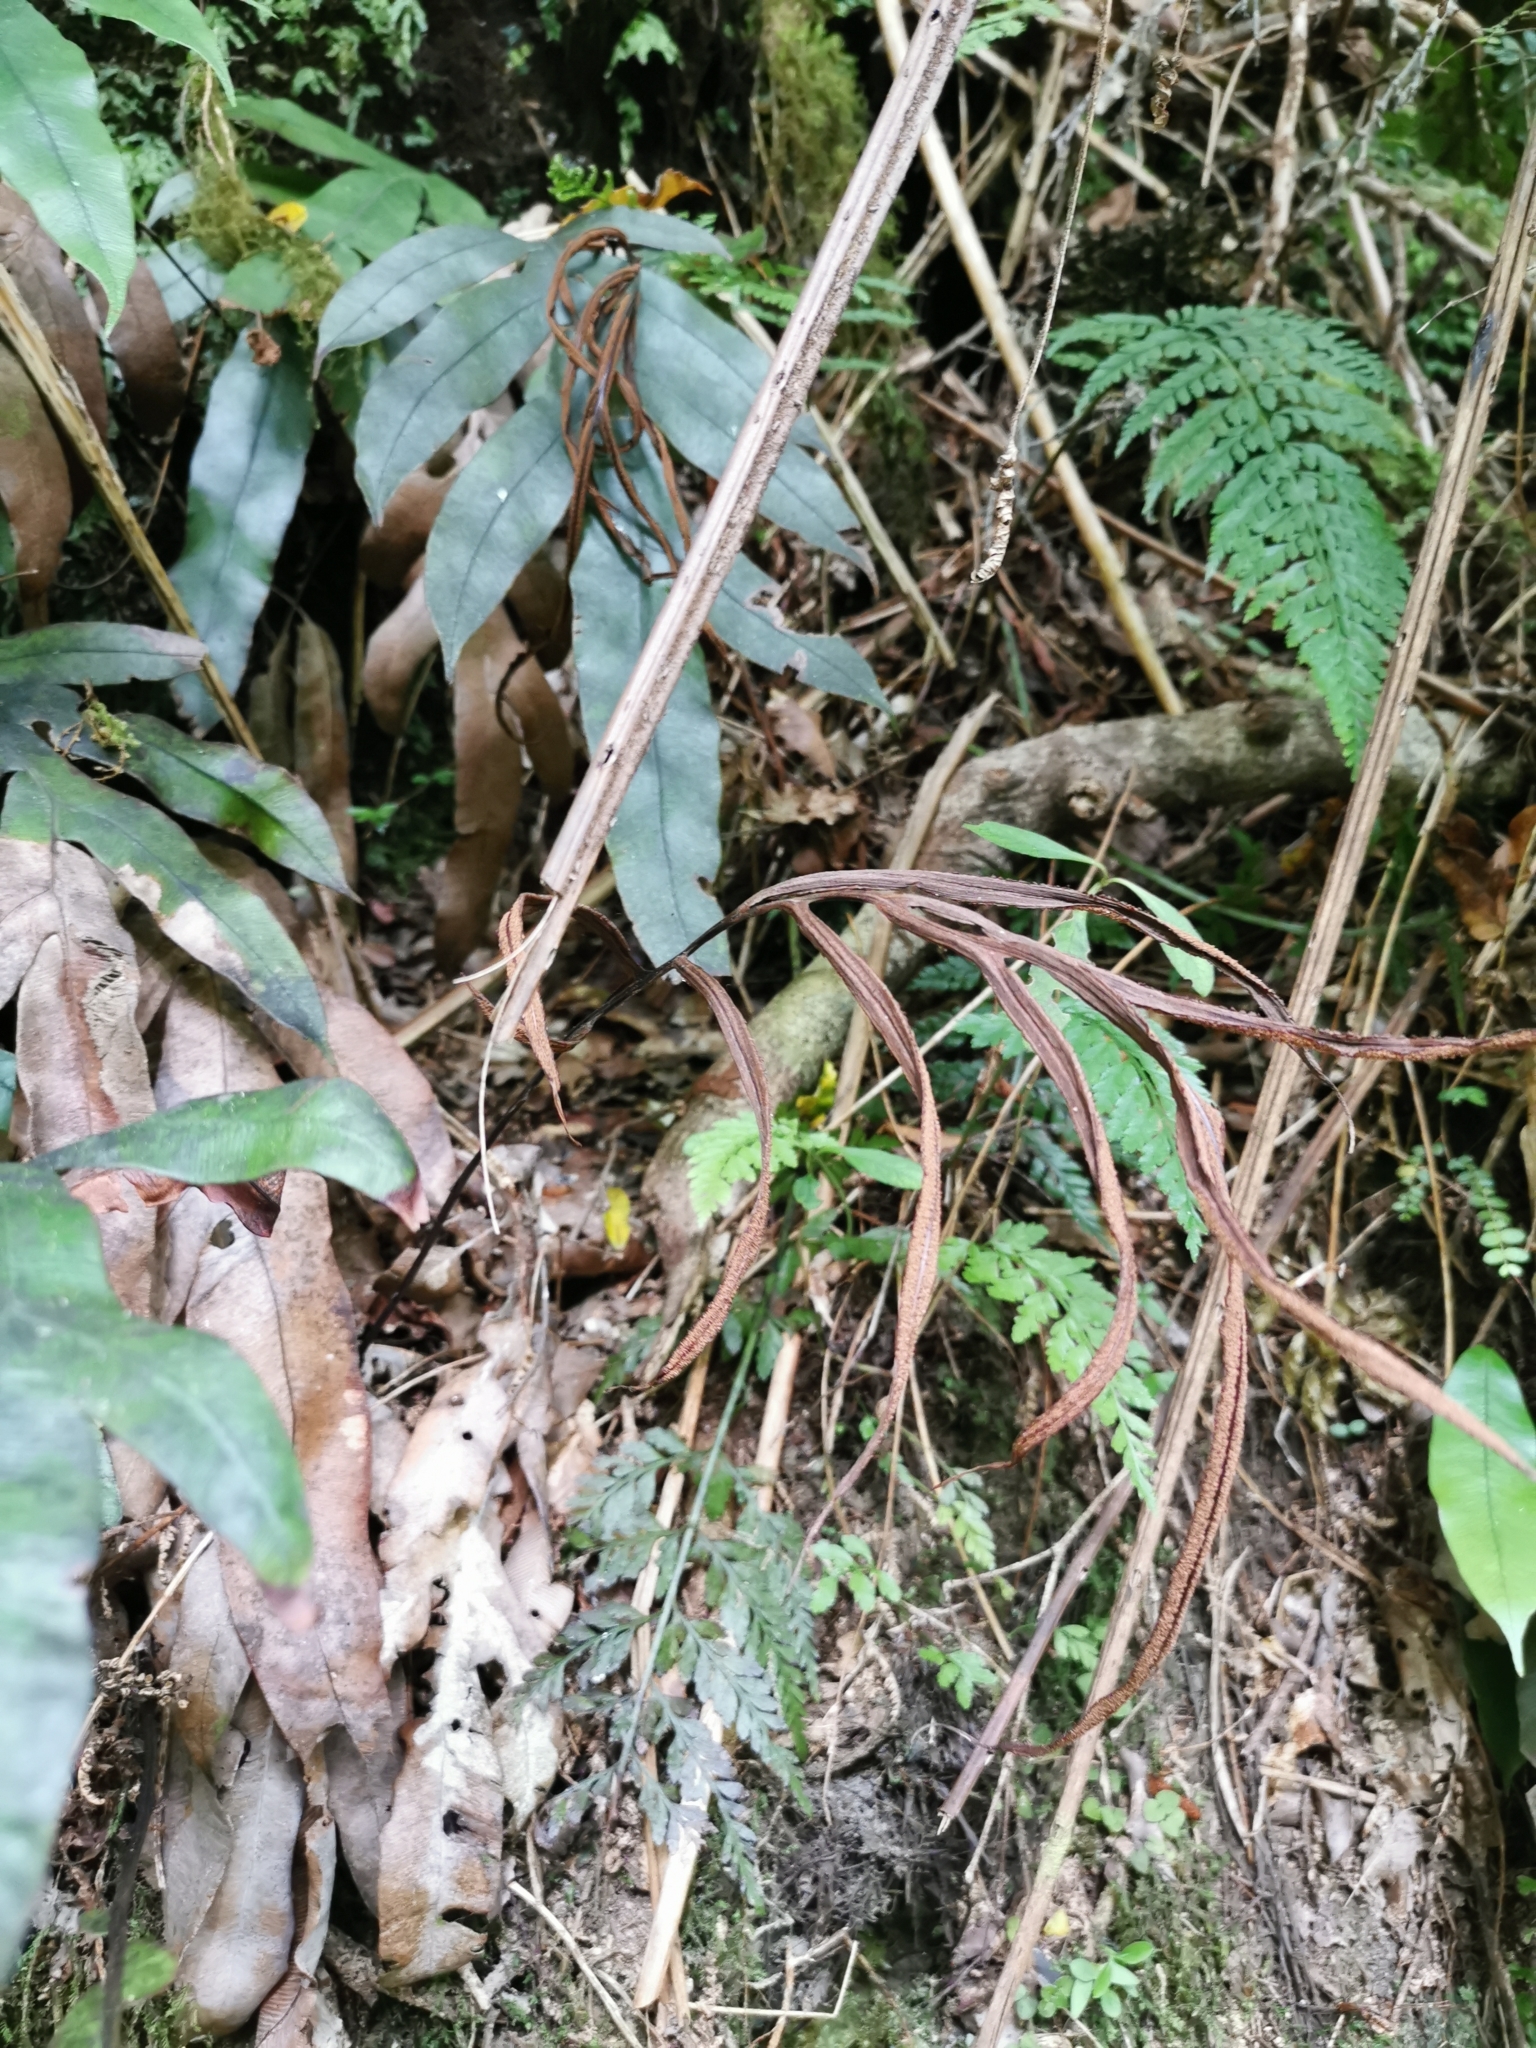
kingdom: Plantae
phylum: Tracheophyta
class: Polypodiopsida
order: Polypodiales
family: Blechnaceae
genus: Austroblechnum
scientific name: Austroblechnum colensoi
